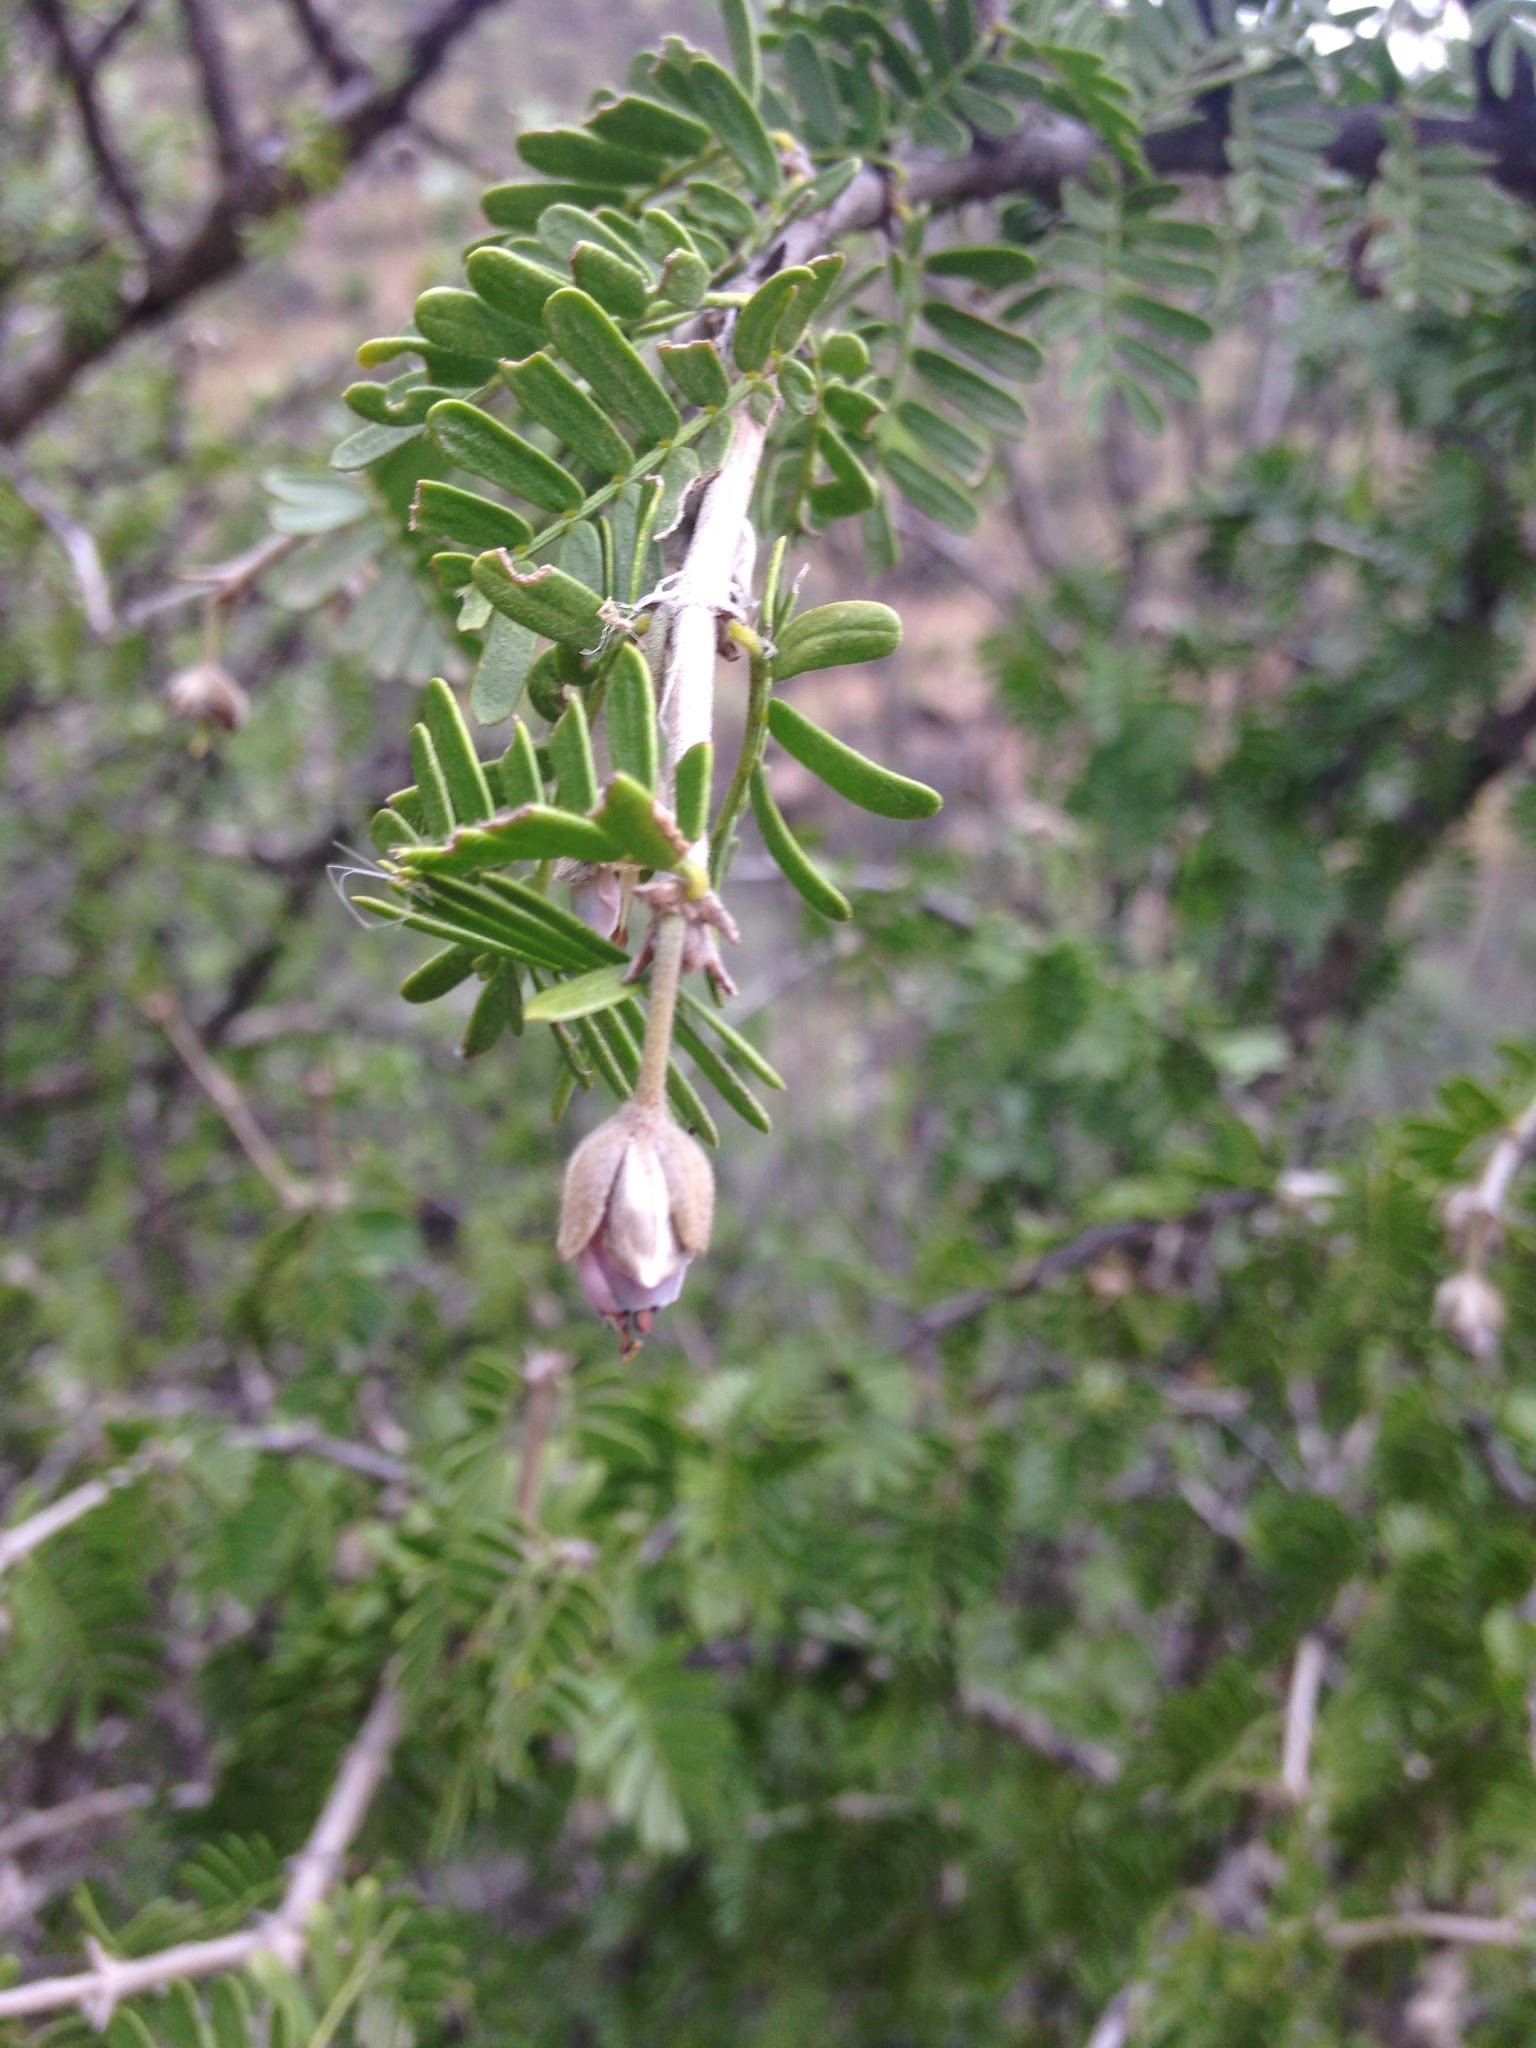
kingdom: Plantae
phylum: Tracheophyta
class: Magnoliopsida
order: Zygophyllales
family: Zygophyllaceae
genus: Porlieria
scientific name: Porlieria chilensis
